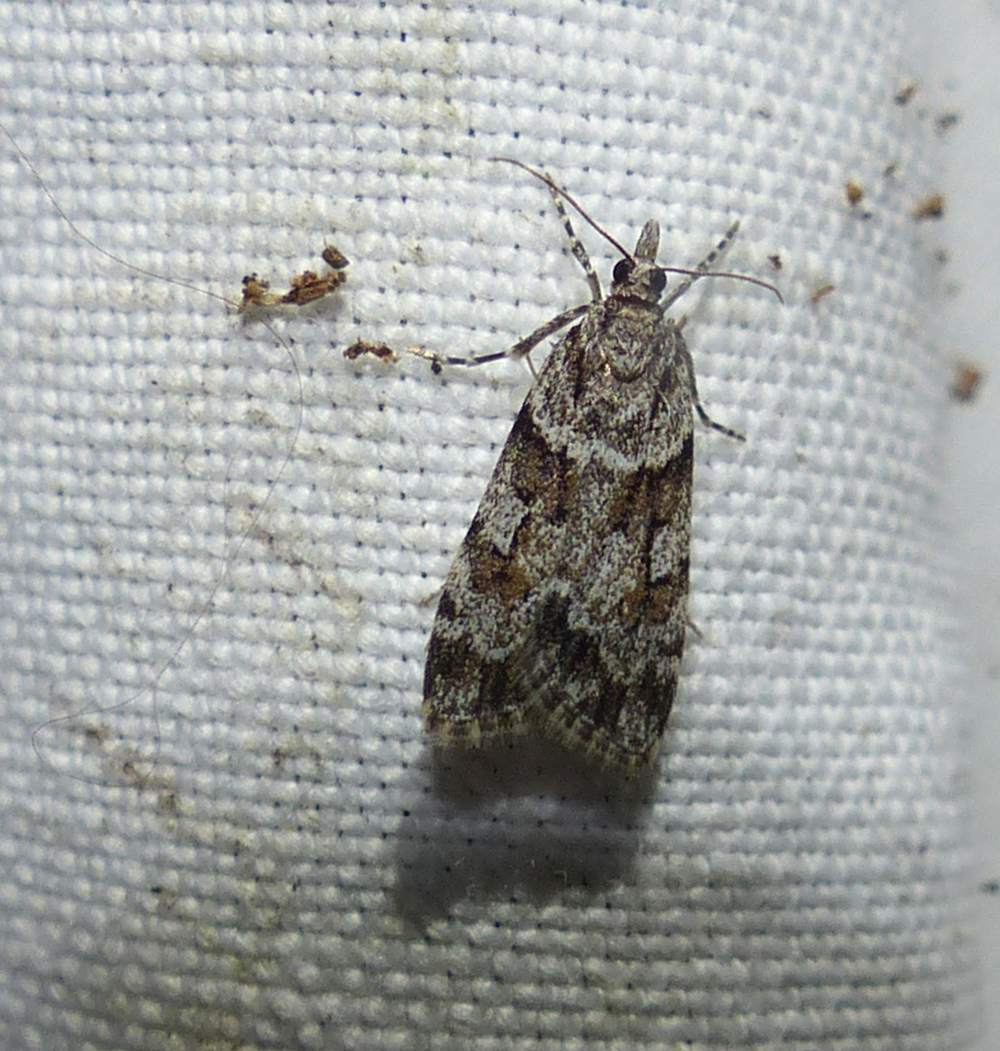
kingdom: Animalia
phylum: Arthropoda
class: Insecta
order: Lepidoptera
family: Crambidae
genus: Scoparia
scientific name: Scoparia biplagialis
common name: Double-striped scoparia moth
